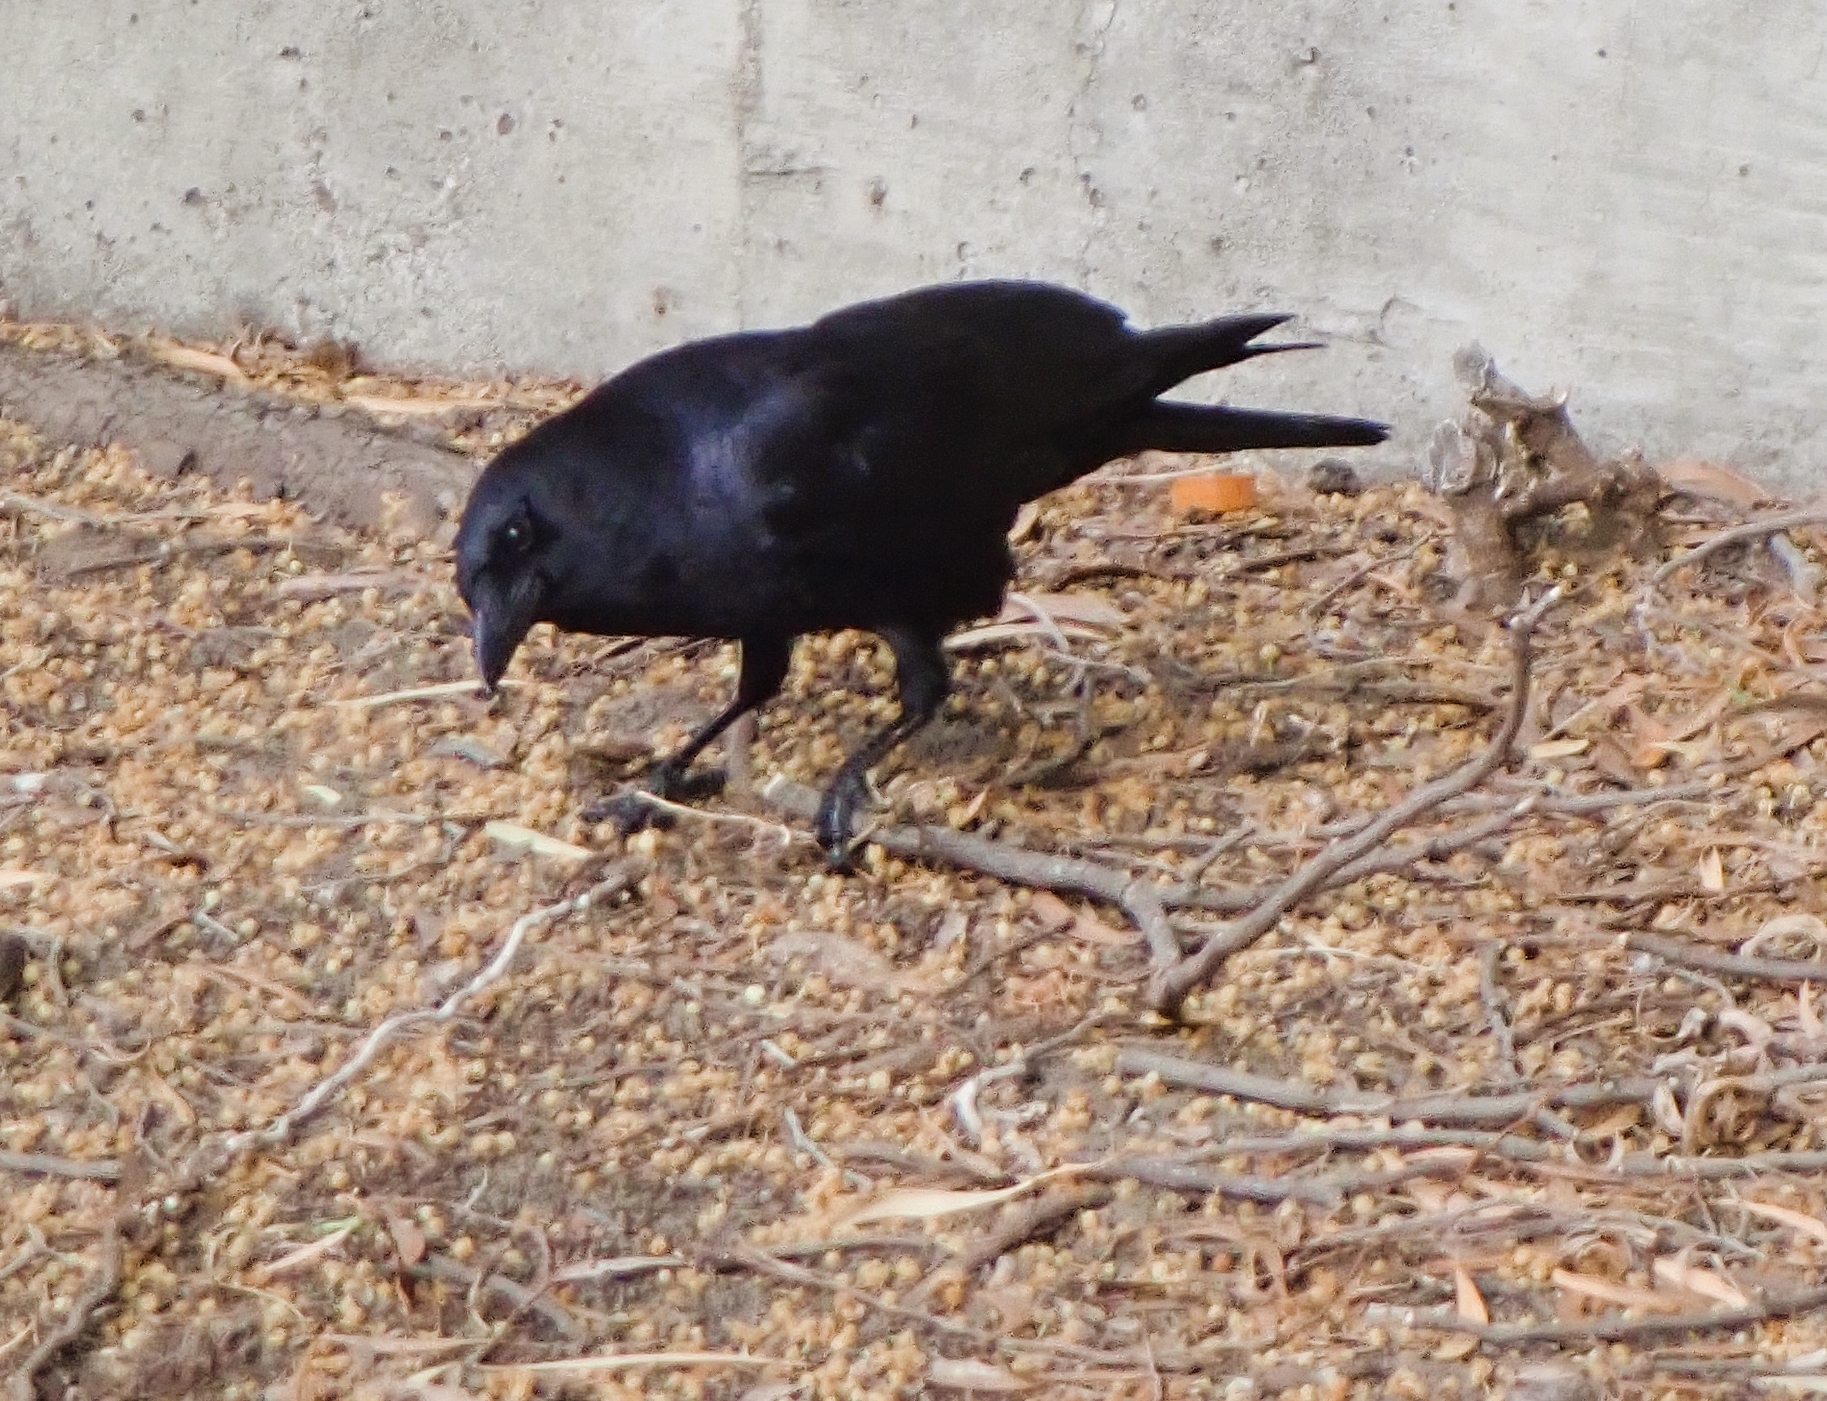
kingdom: Animalia
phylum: Chordata
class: Aves
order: Passeriformes
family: Corvidae
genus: Corvus
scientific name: Corvus brachyrhynchos
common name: American crow
